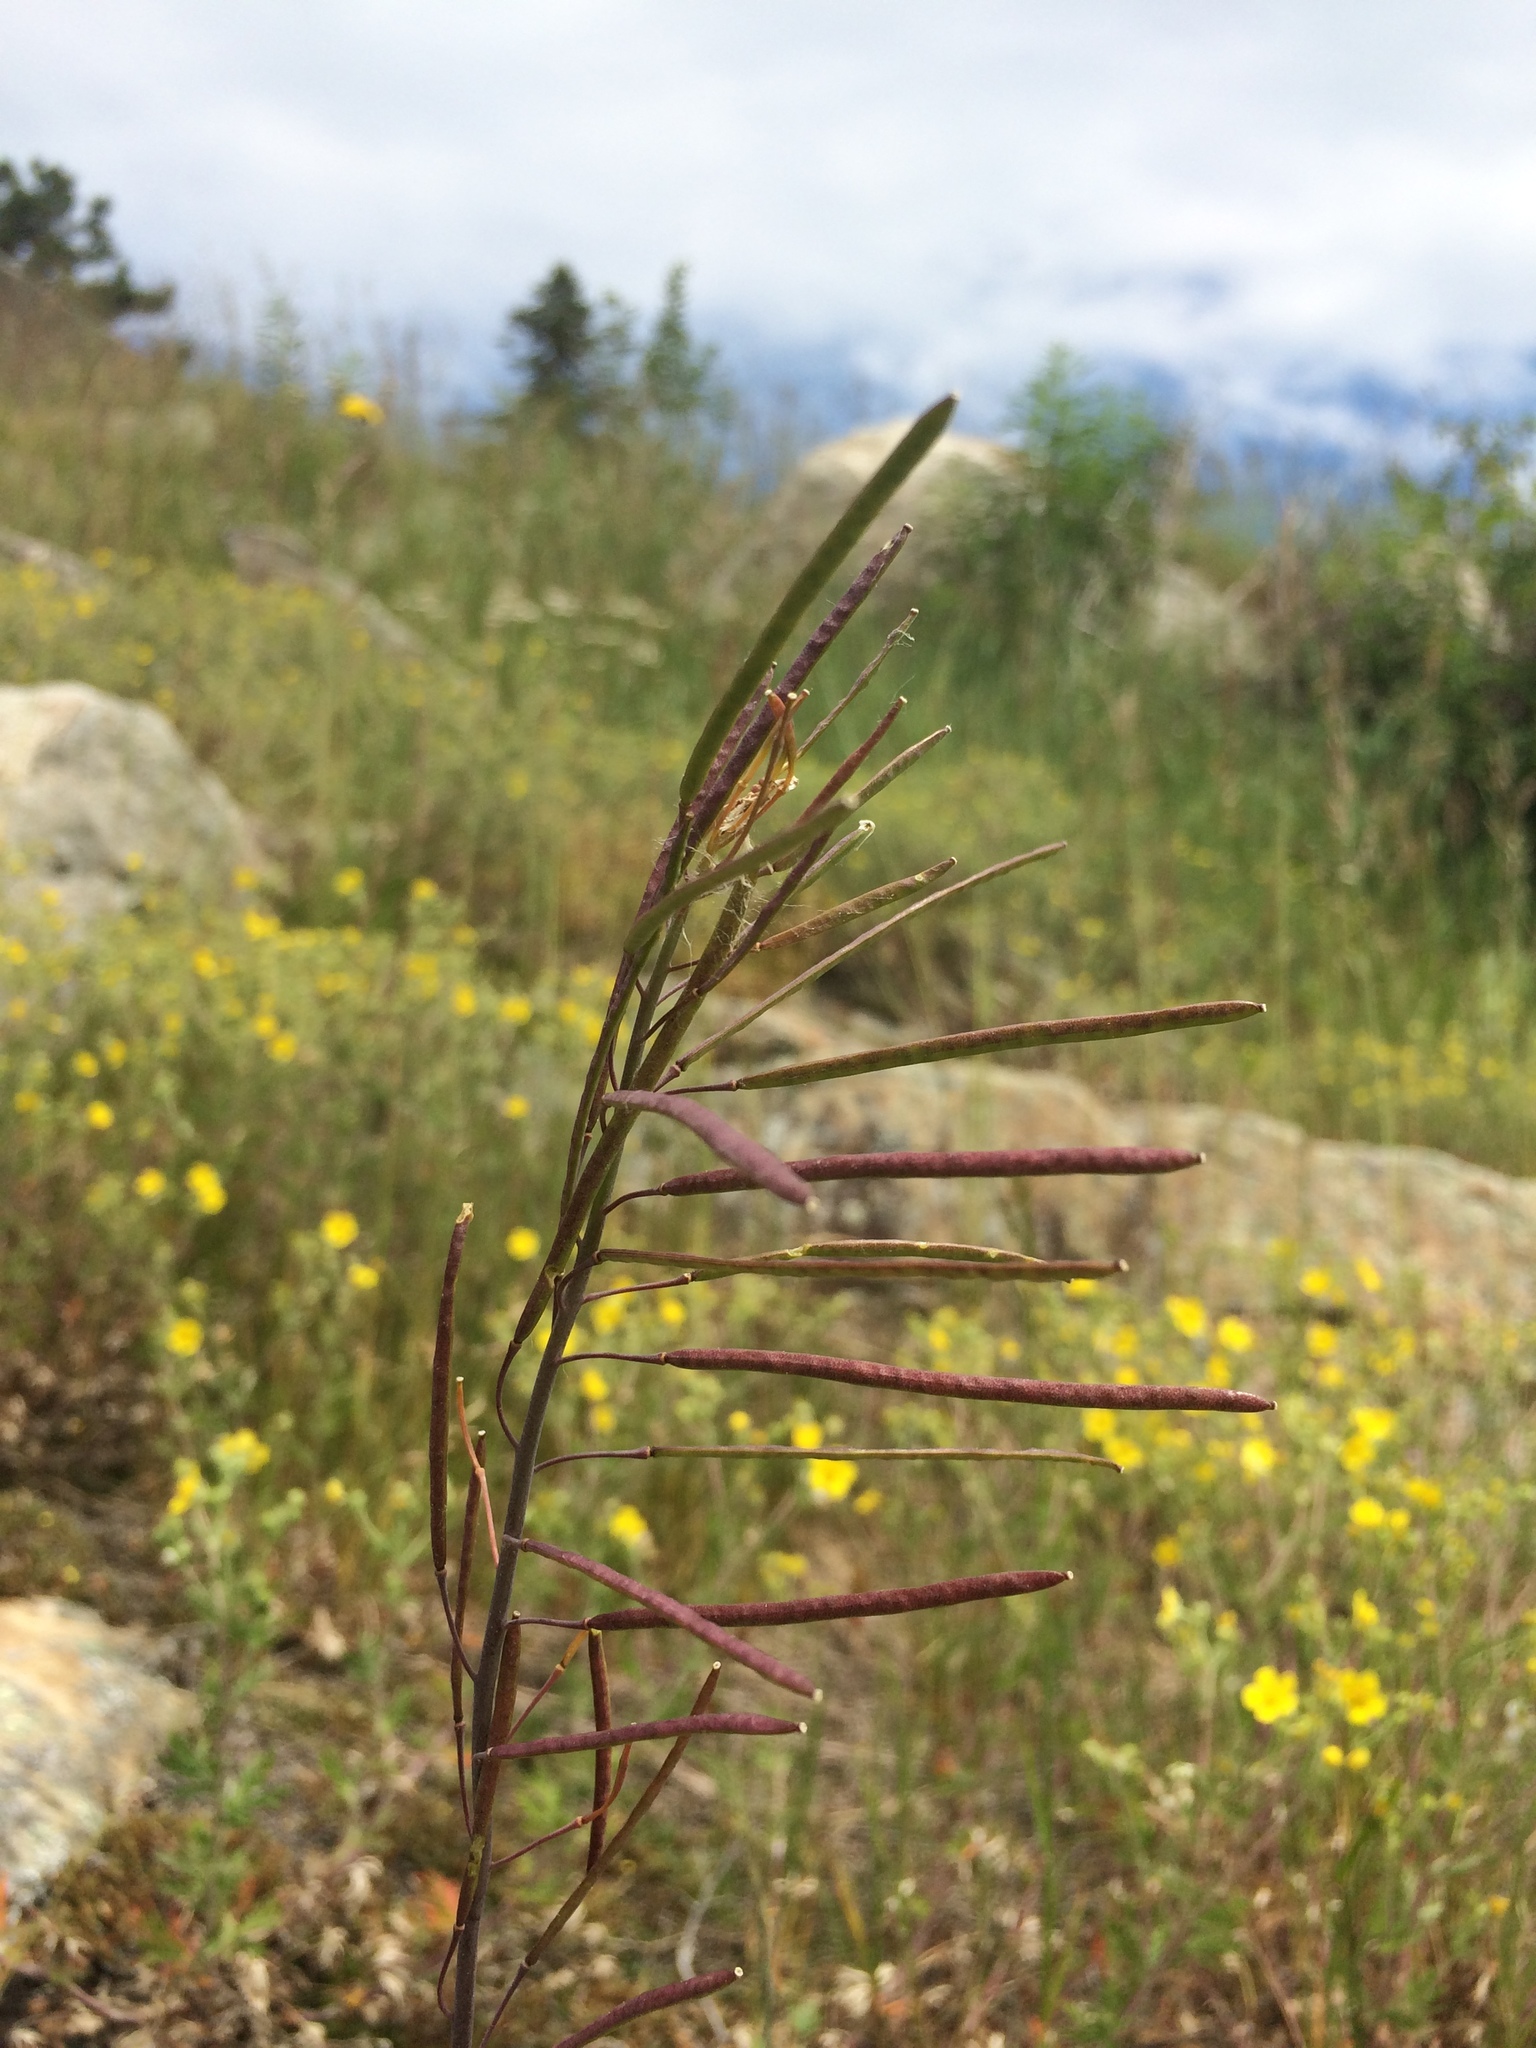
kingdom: Plantae
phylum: Tracheophyta
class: Magnoliopsida
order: Brassicales
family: Brassicaceae
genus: Boechera
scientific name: Boechera grahamii
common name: Graham's rockcress
